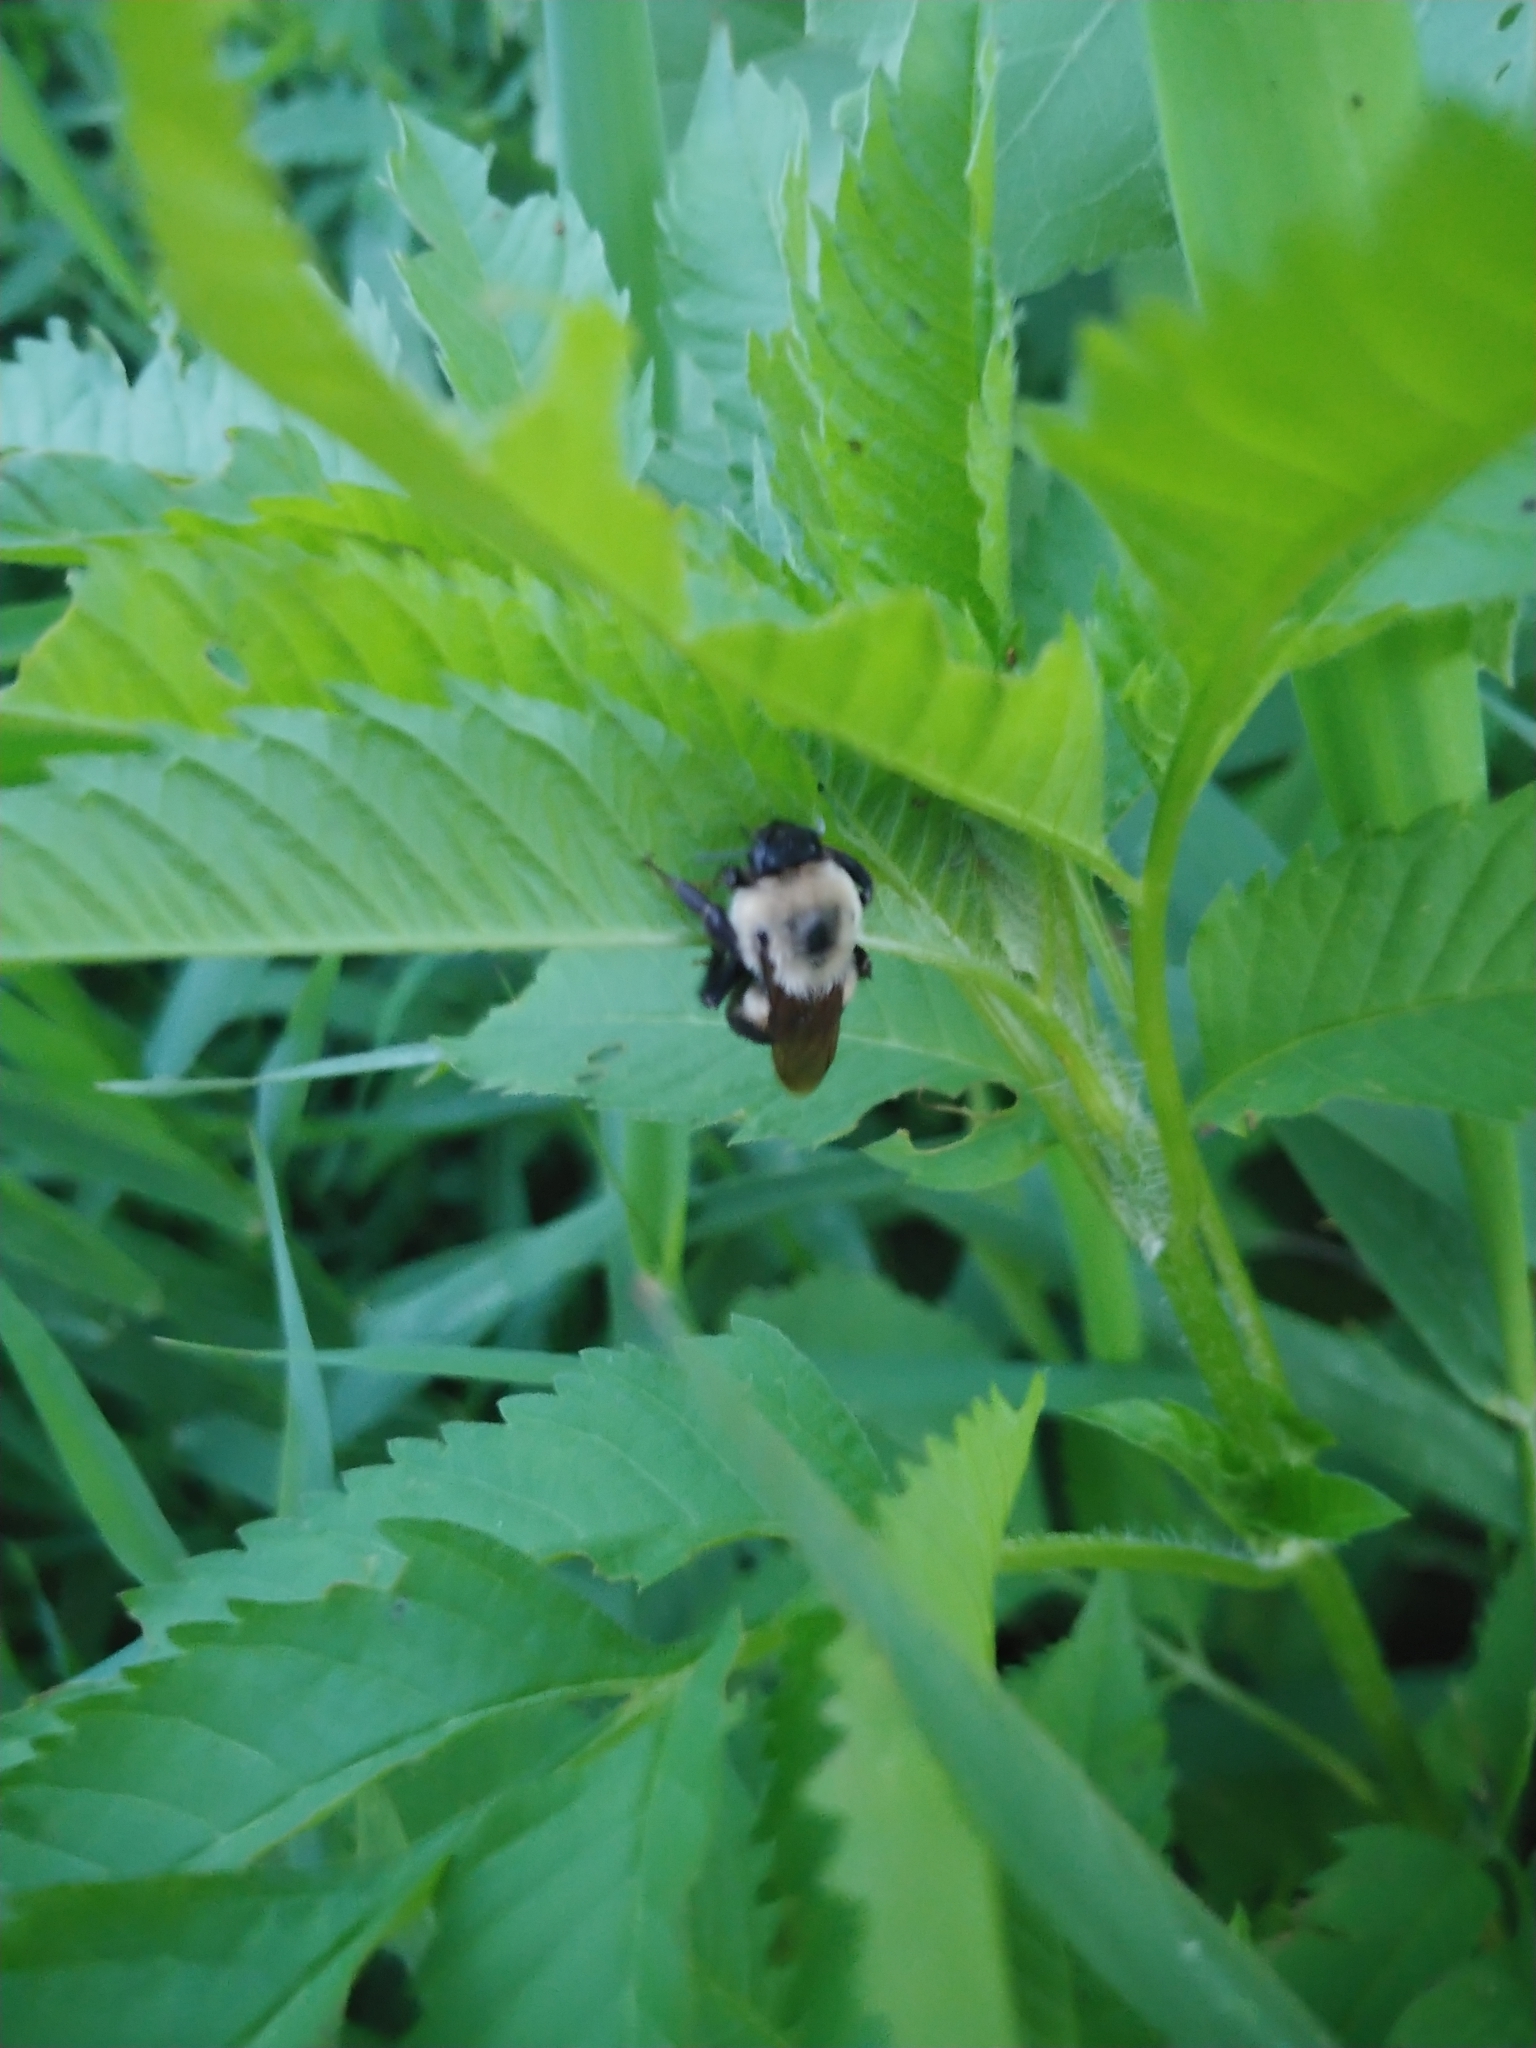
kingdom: Animalia
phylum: Arthropoda
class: Insecta
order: Hymenoptera
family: Apidae
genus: Bombus
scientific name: Bombus griseocollis
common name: Brown-belted bumble bee
